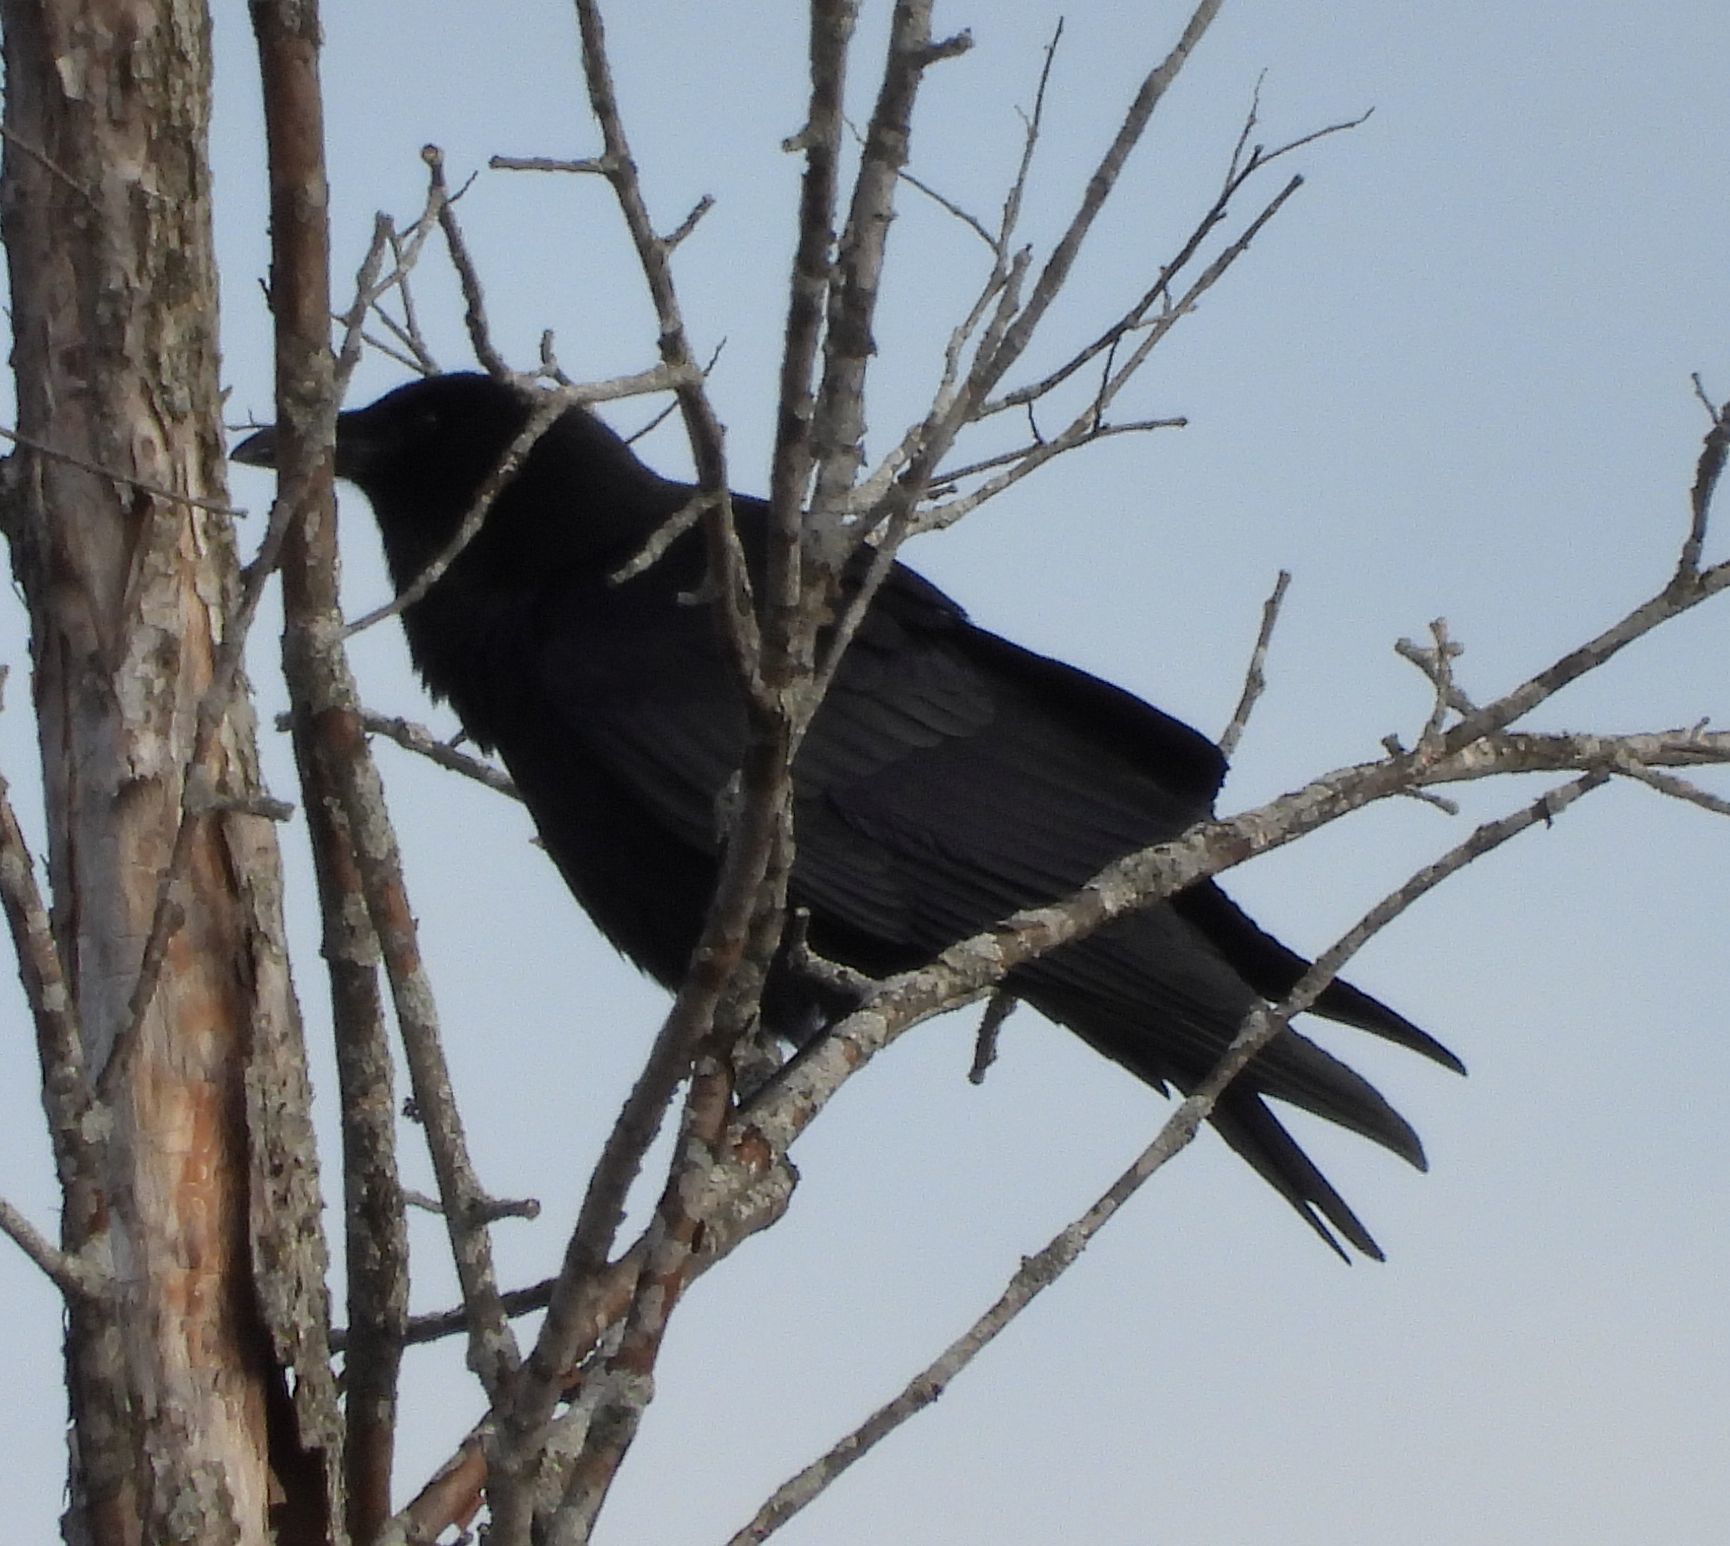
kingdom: Animalia
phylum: Chordata
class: Aves
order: Passeriformes
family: Corvidae
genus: Corvus
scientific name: Corvus corax
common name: Common raven
